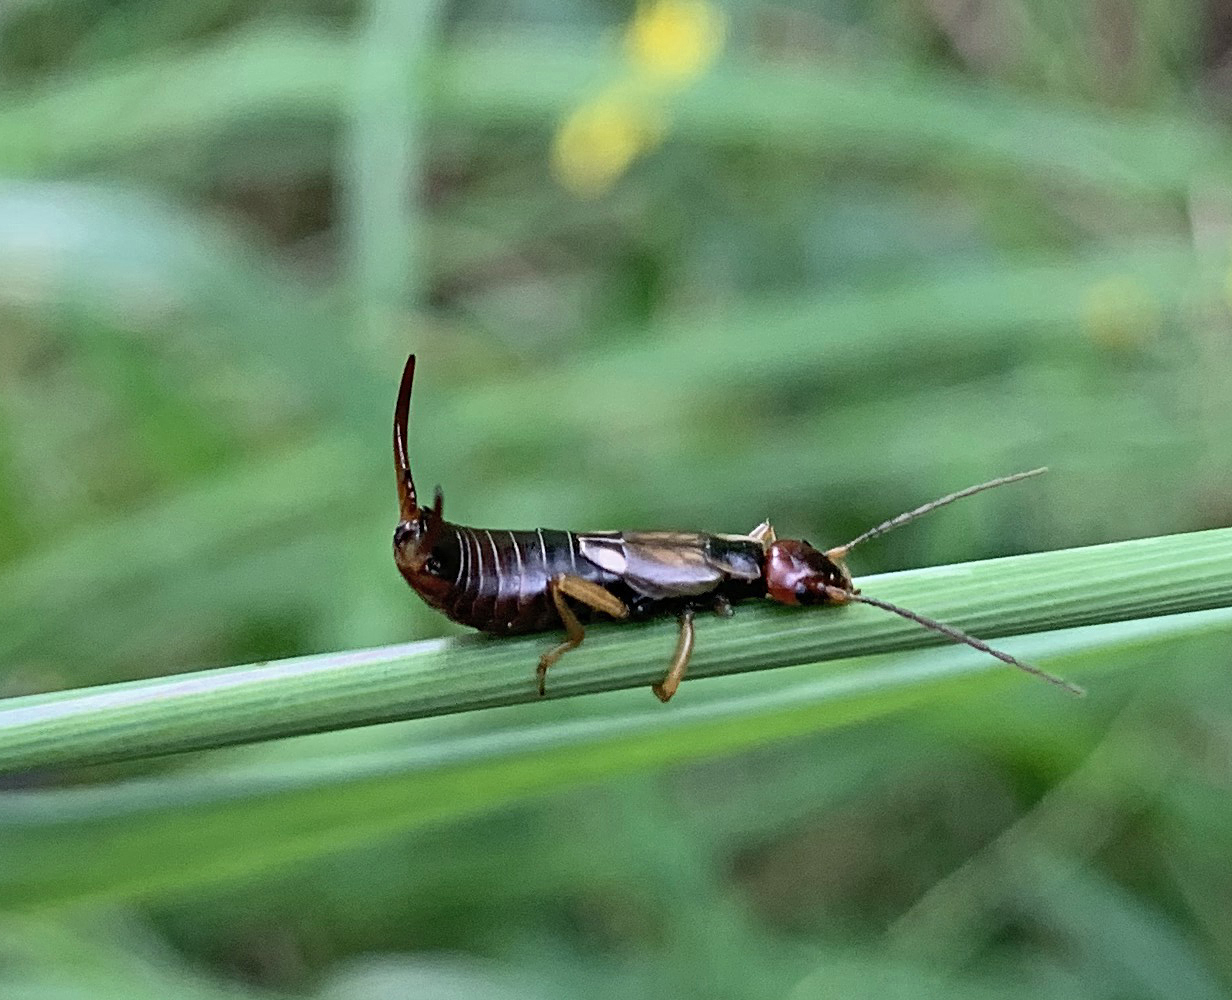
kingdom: Animalia
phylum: Arthropoda
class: Insecta
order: Dermaptera
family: Forficulidae
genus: Forficula
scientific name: Forficula
